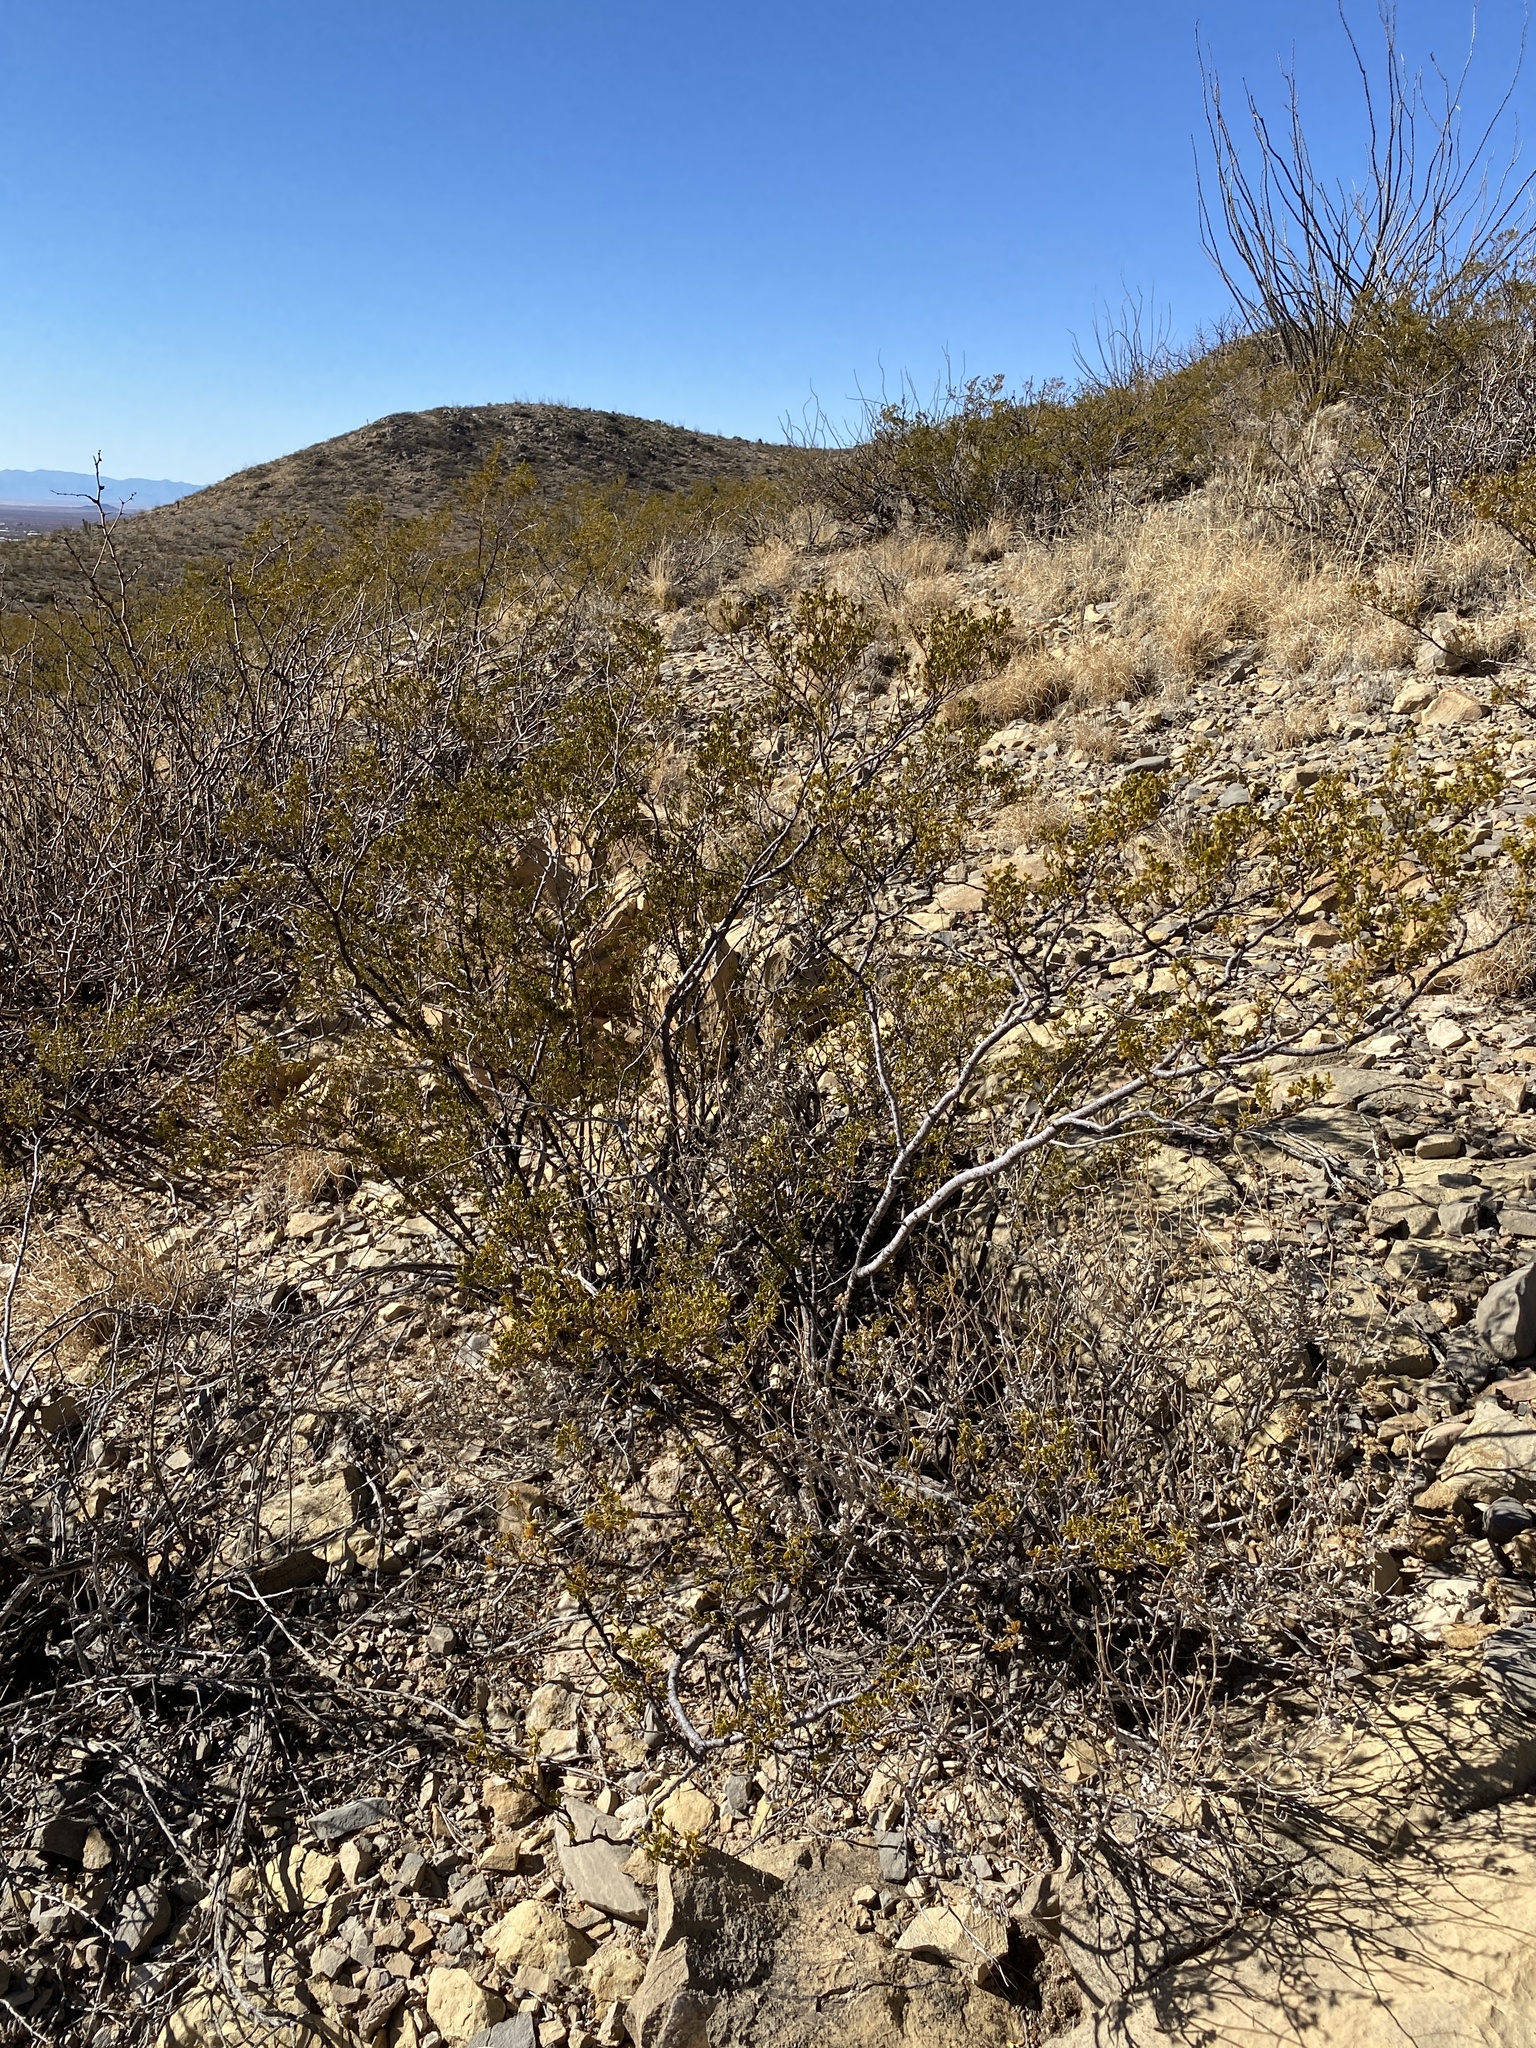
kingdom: Plantae
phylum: Tracheophyta
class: Magnoliopsida
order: Zygophyllales
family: Zygophyllaceae
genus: Larrea
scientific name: Larrea tridentata
